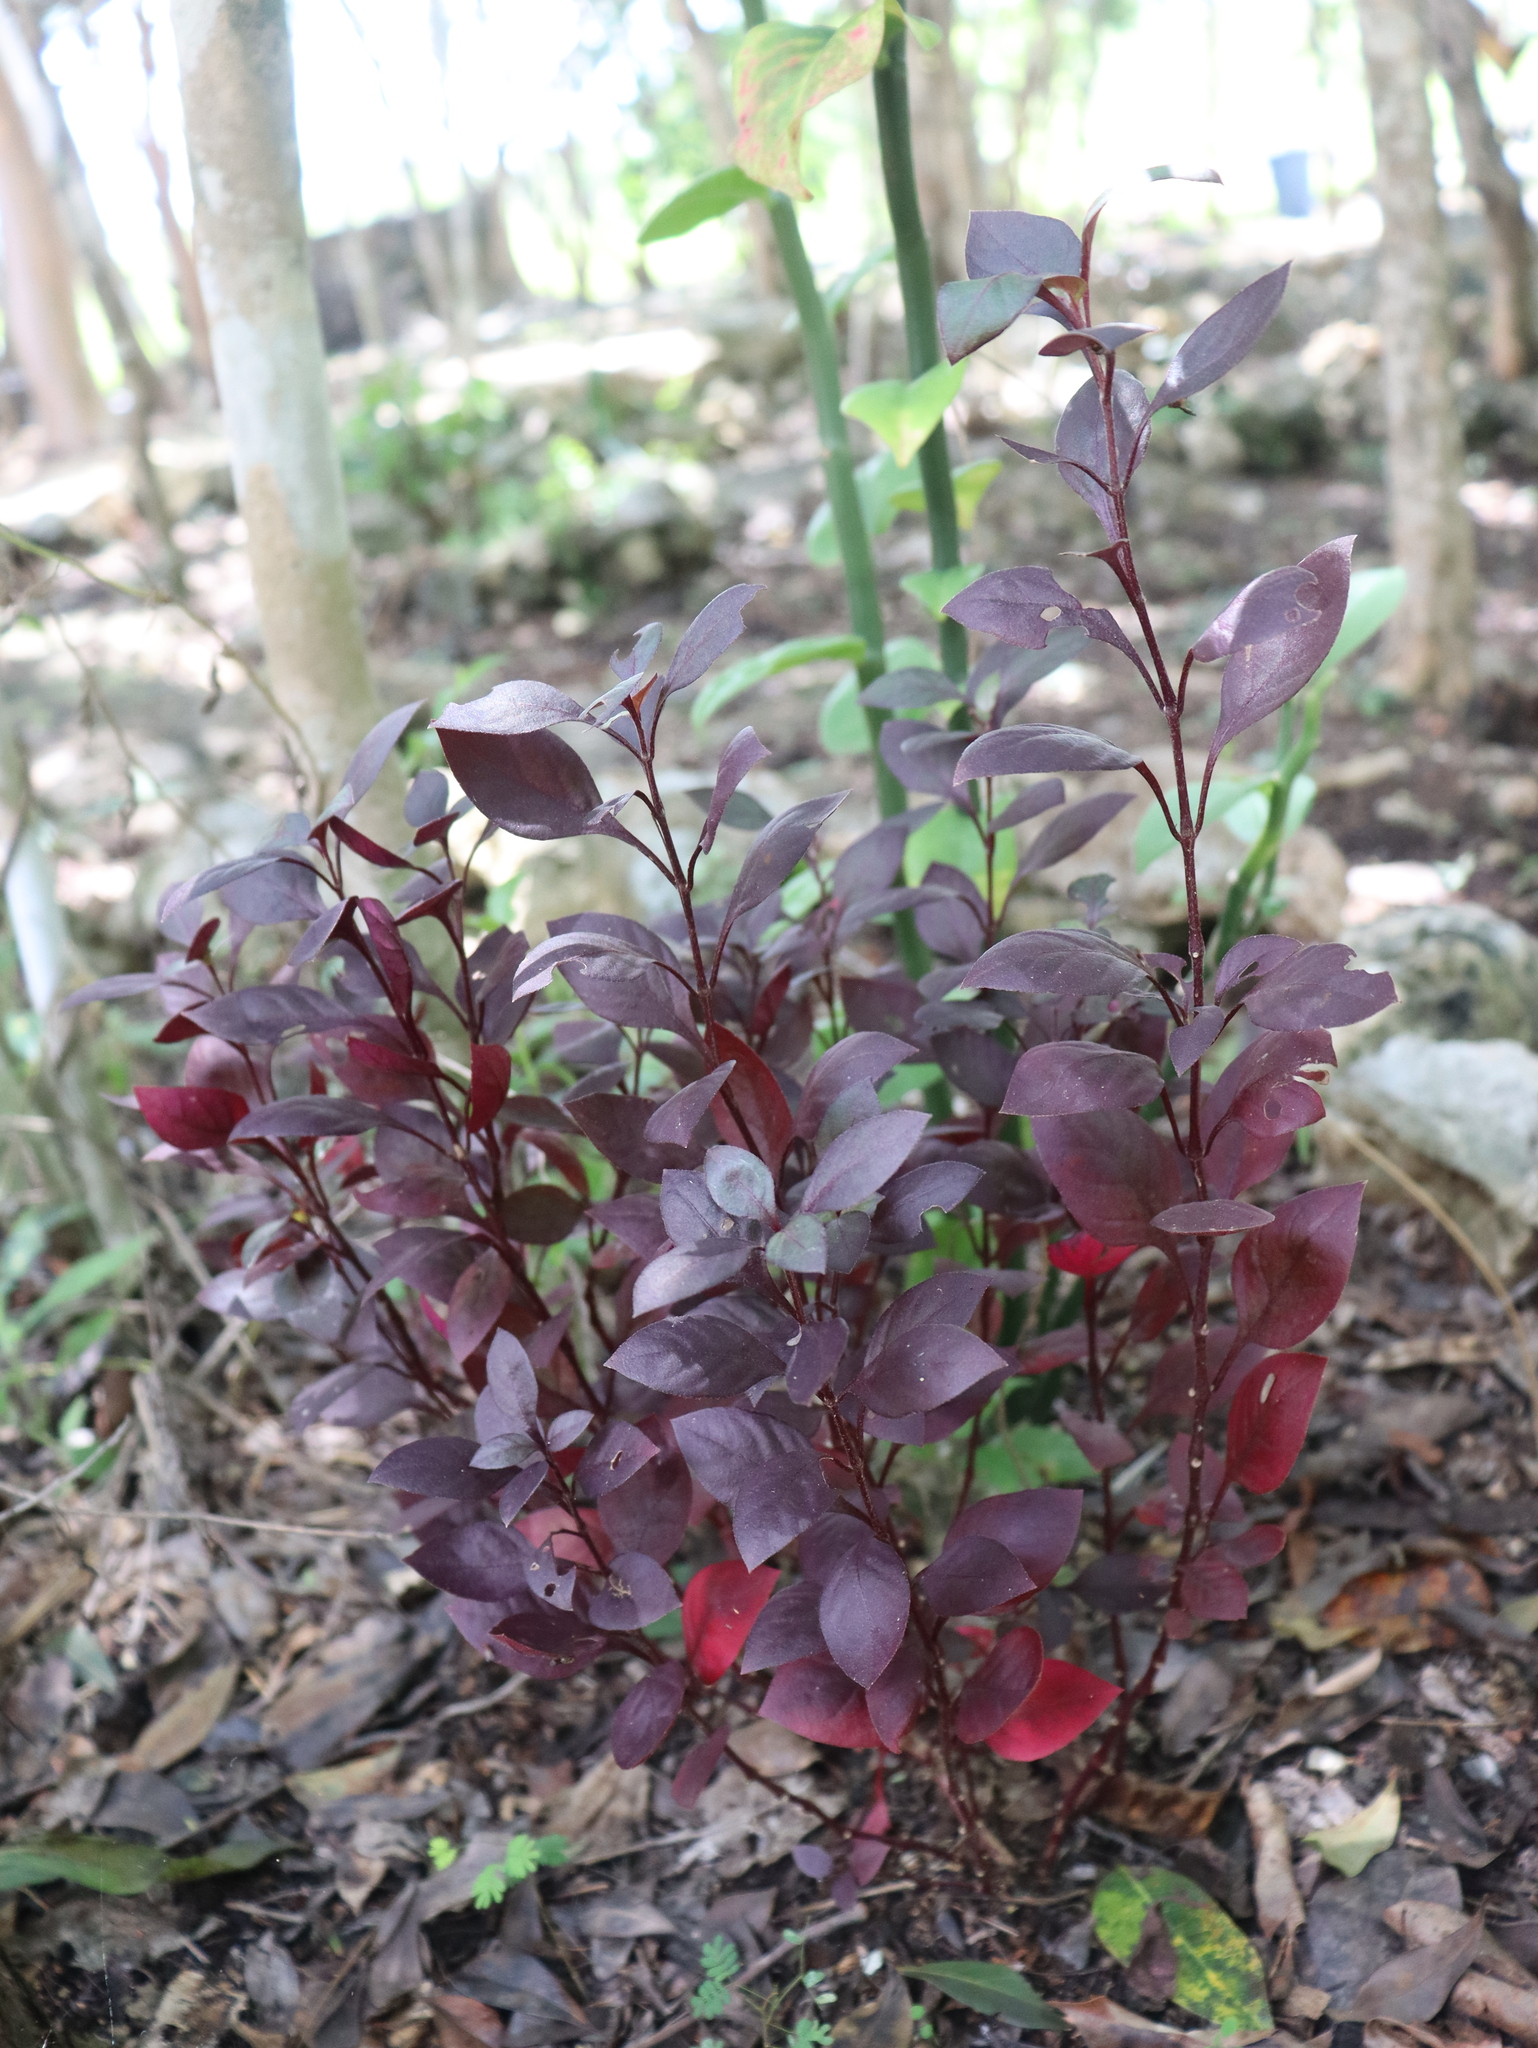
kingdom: Plantae
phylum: Tracheophyta
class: Magnoliopsida
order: Caryophyllales
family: Amaranthaceae
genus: Alternanthera
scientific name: Alternanthera brasiliana
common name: Brazilian joyweed
